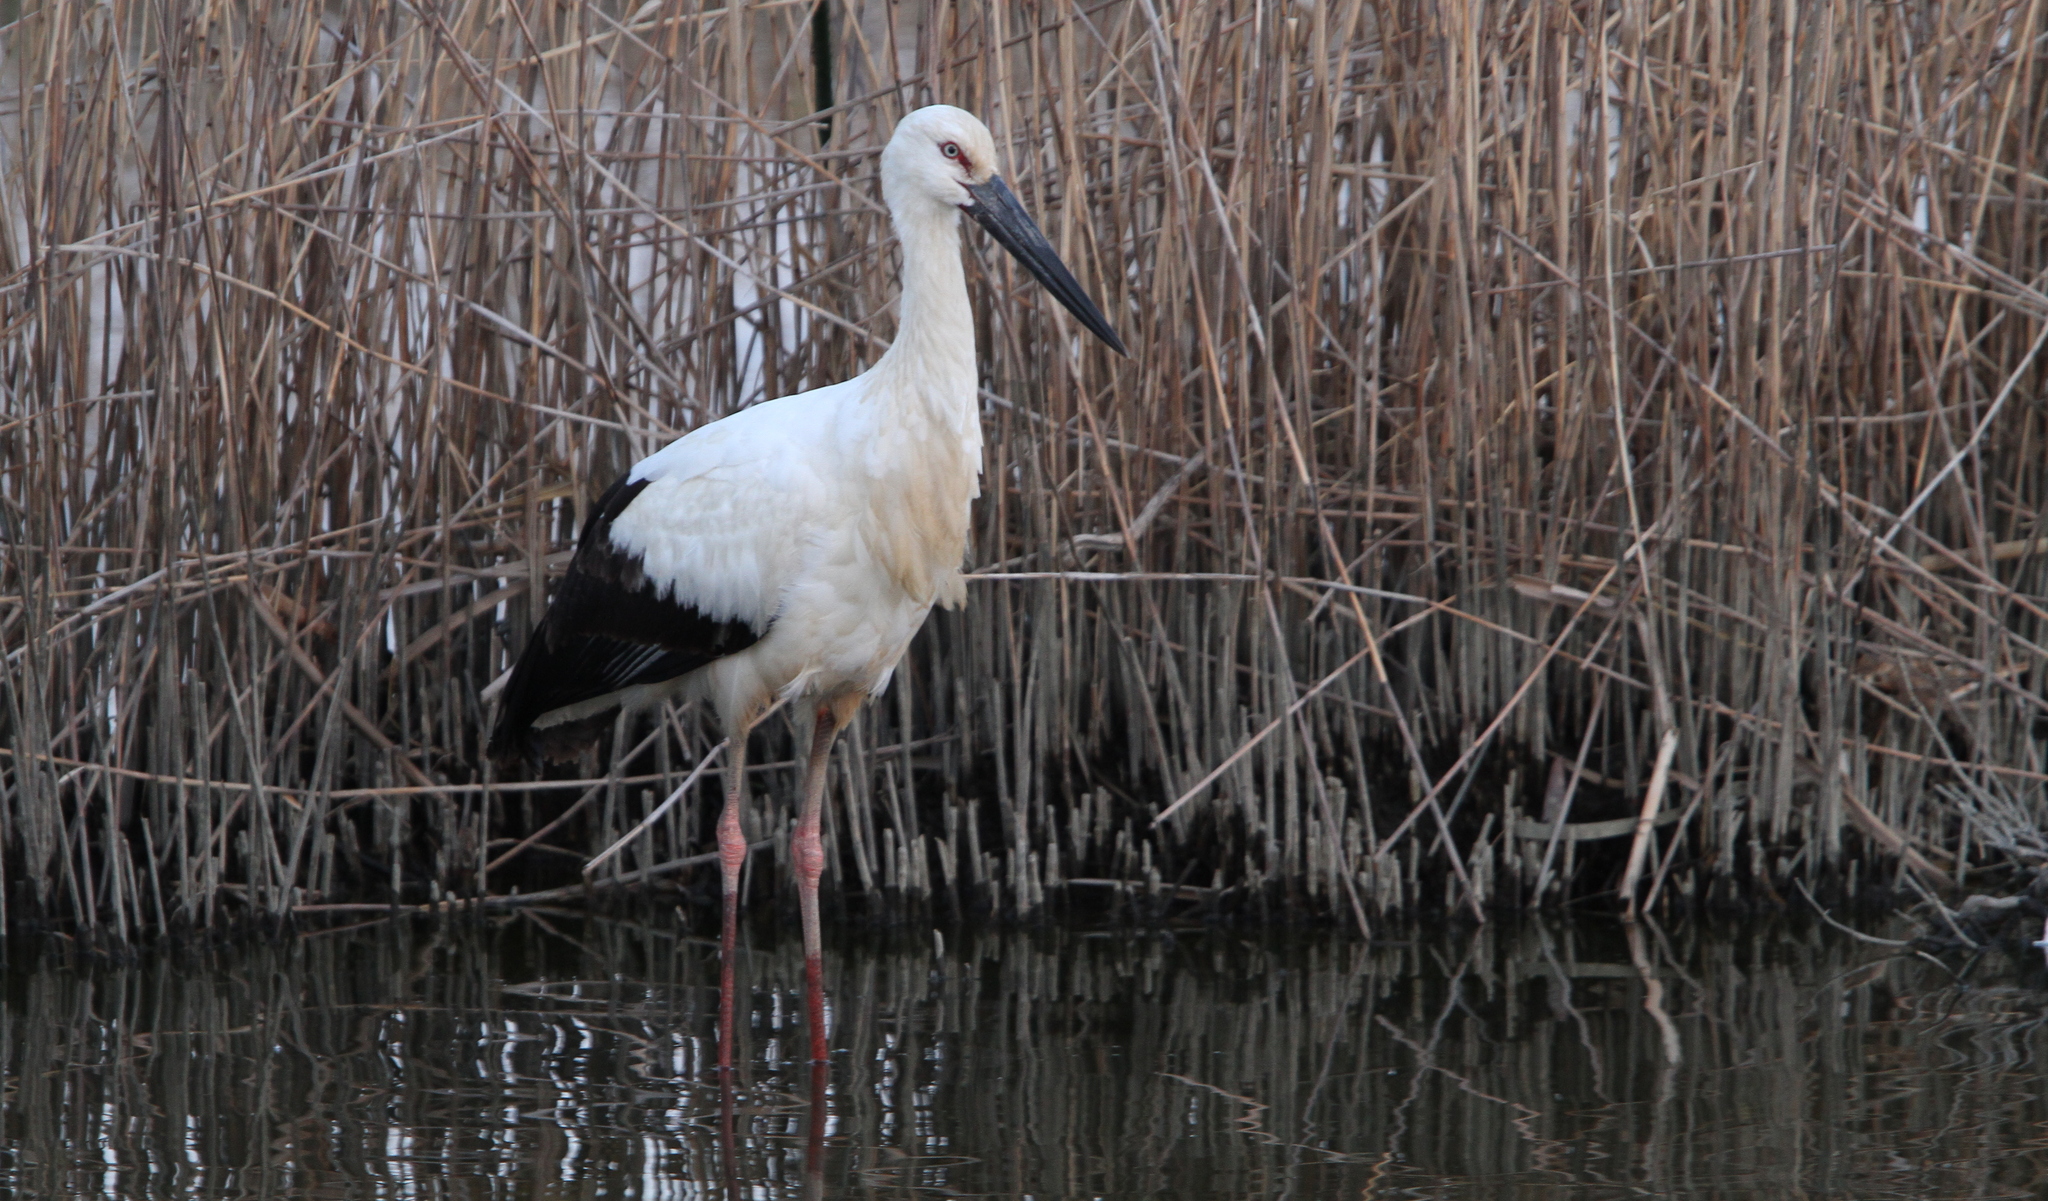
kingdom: Animalia
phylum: Chordata
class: Aves
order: Ciconiiformes
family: Ciconiidae
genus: Ciconia
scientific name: Ciconia boyciana
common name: Oriental stork
